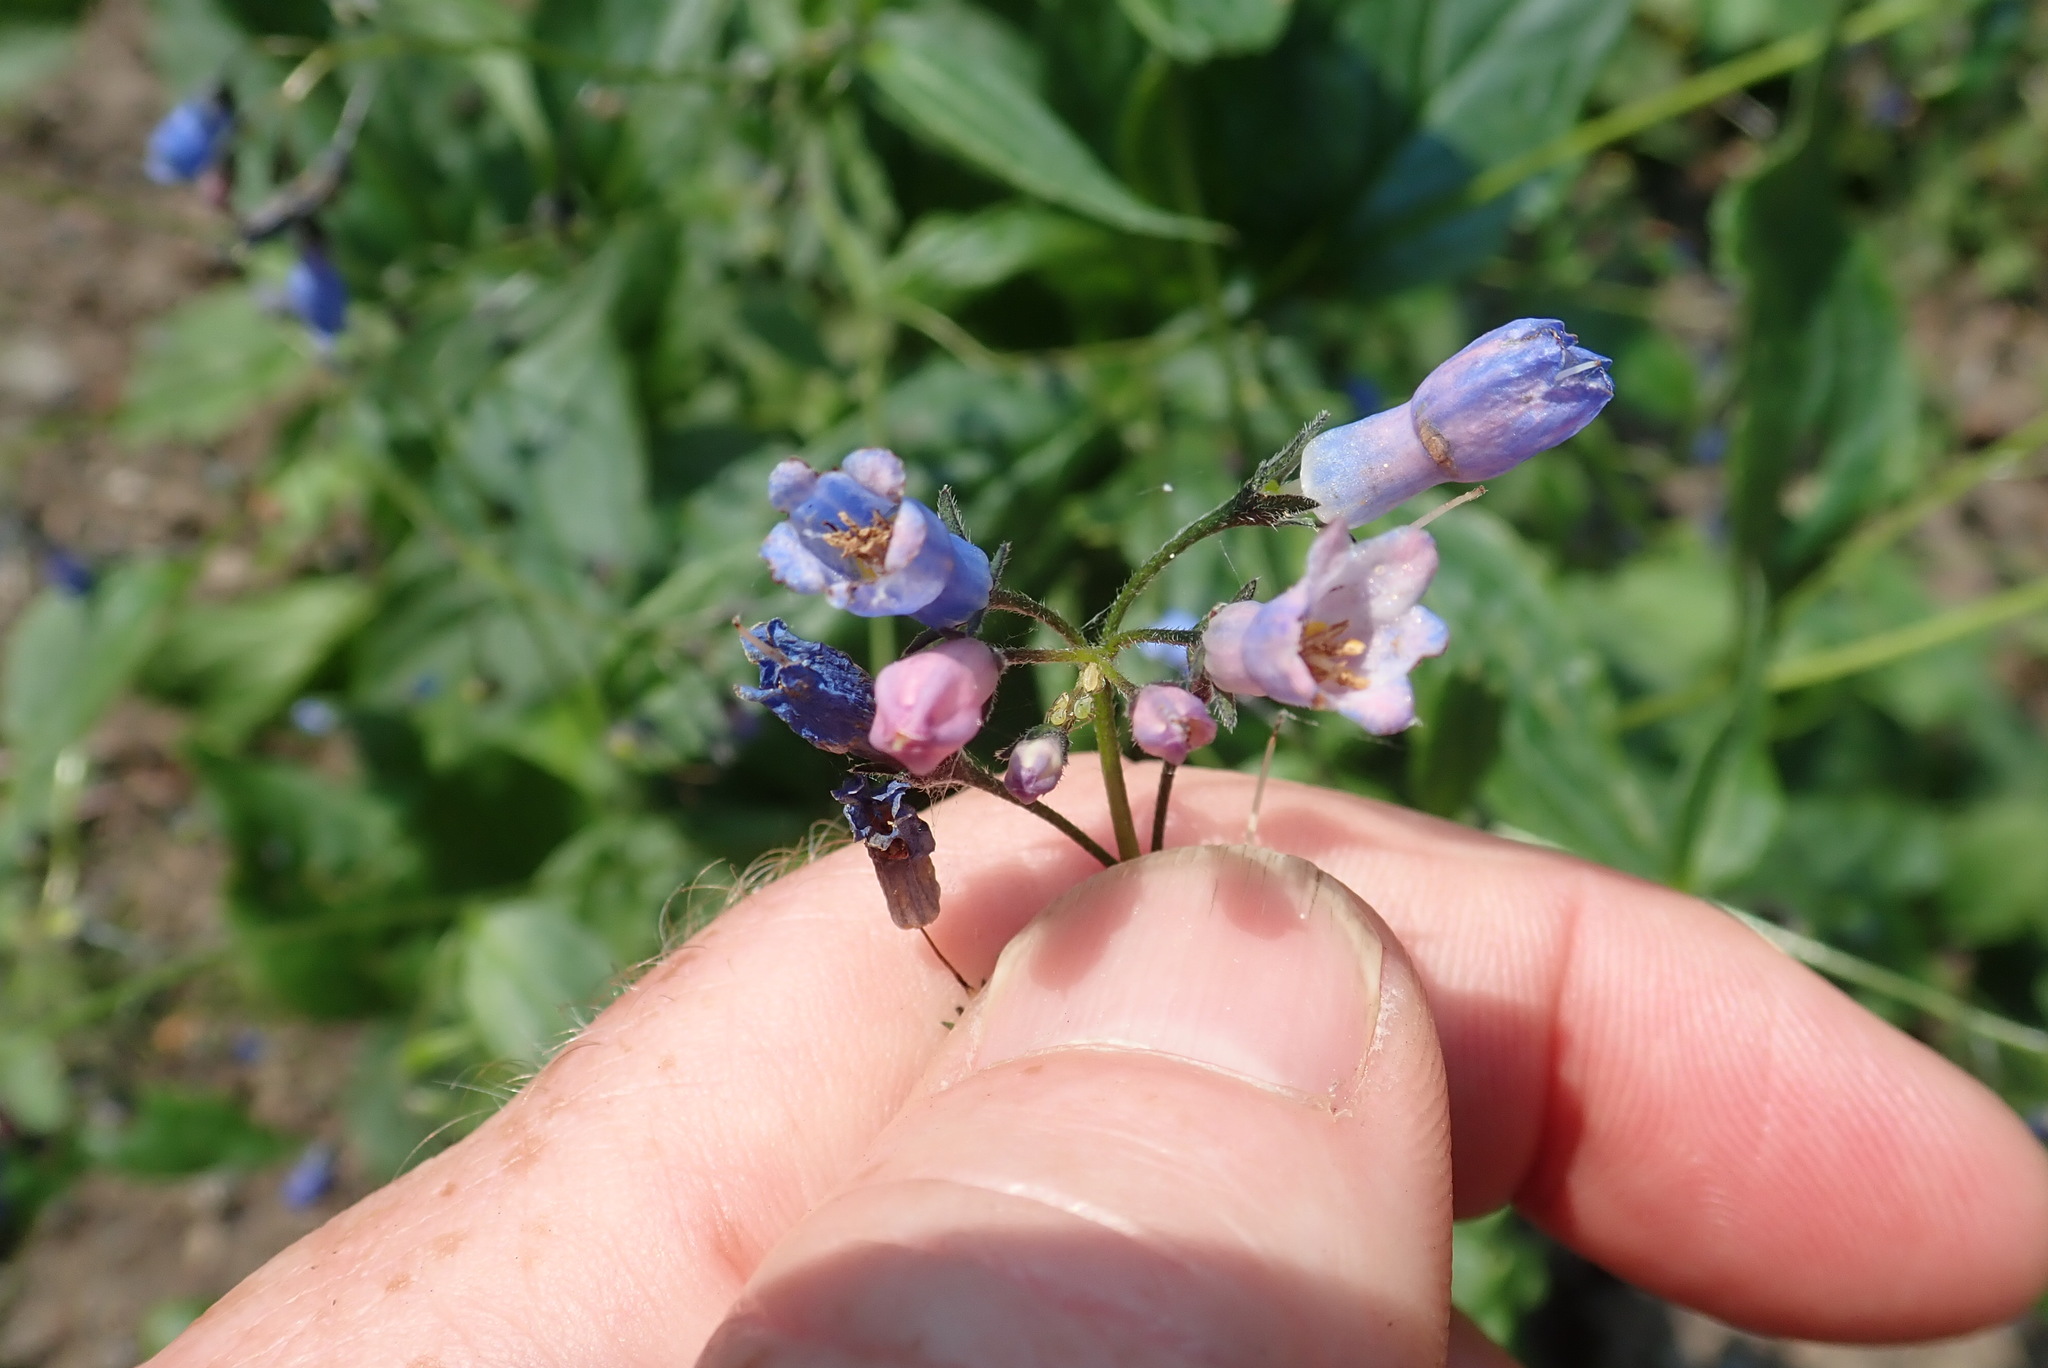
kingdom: Plantae
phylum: Tracheophyta
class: Magnoliopsida
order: Boraginales
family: Boraginaceae
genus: Mertensia
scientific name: Mertensia paniculata
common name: Panicled bluebells
